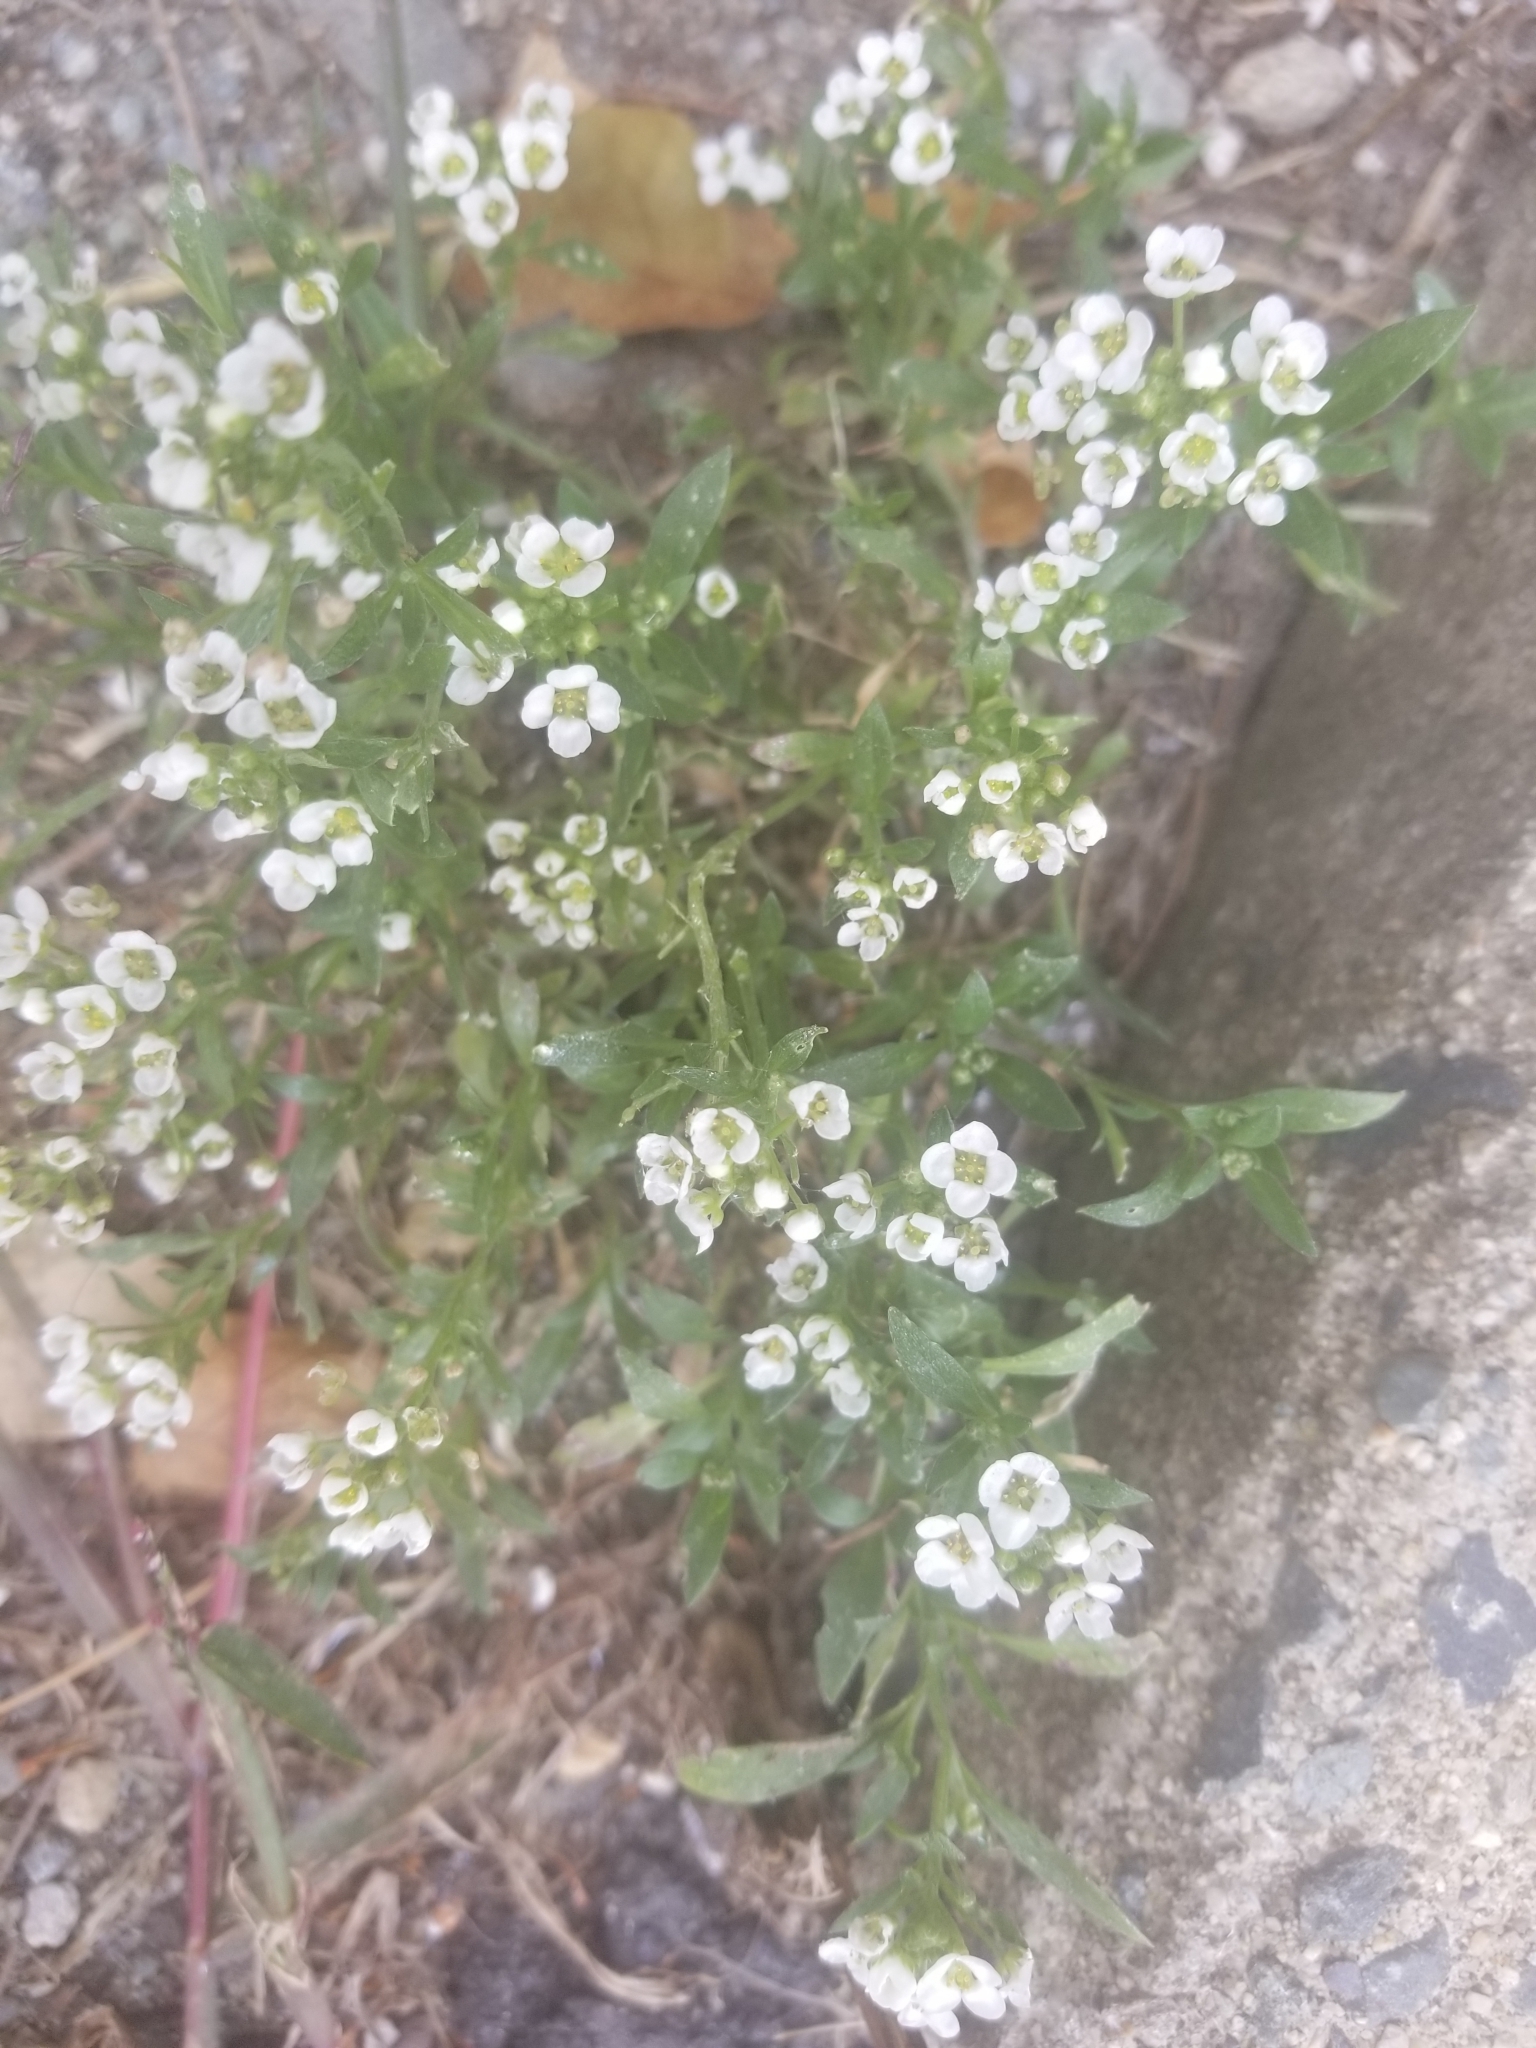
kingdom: Plantae
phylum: Tracheophyta
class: Magnoliopsida
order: Brassicales
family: Brassicaceae
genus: Lobularia
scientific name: Lobularia maritima
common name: Sweet alison
